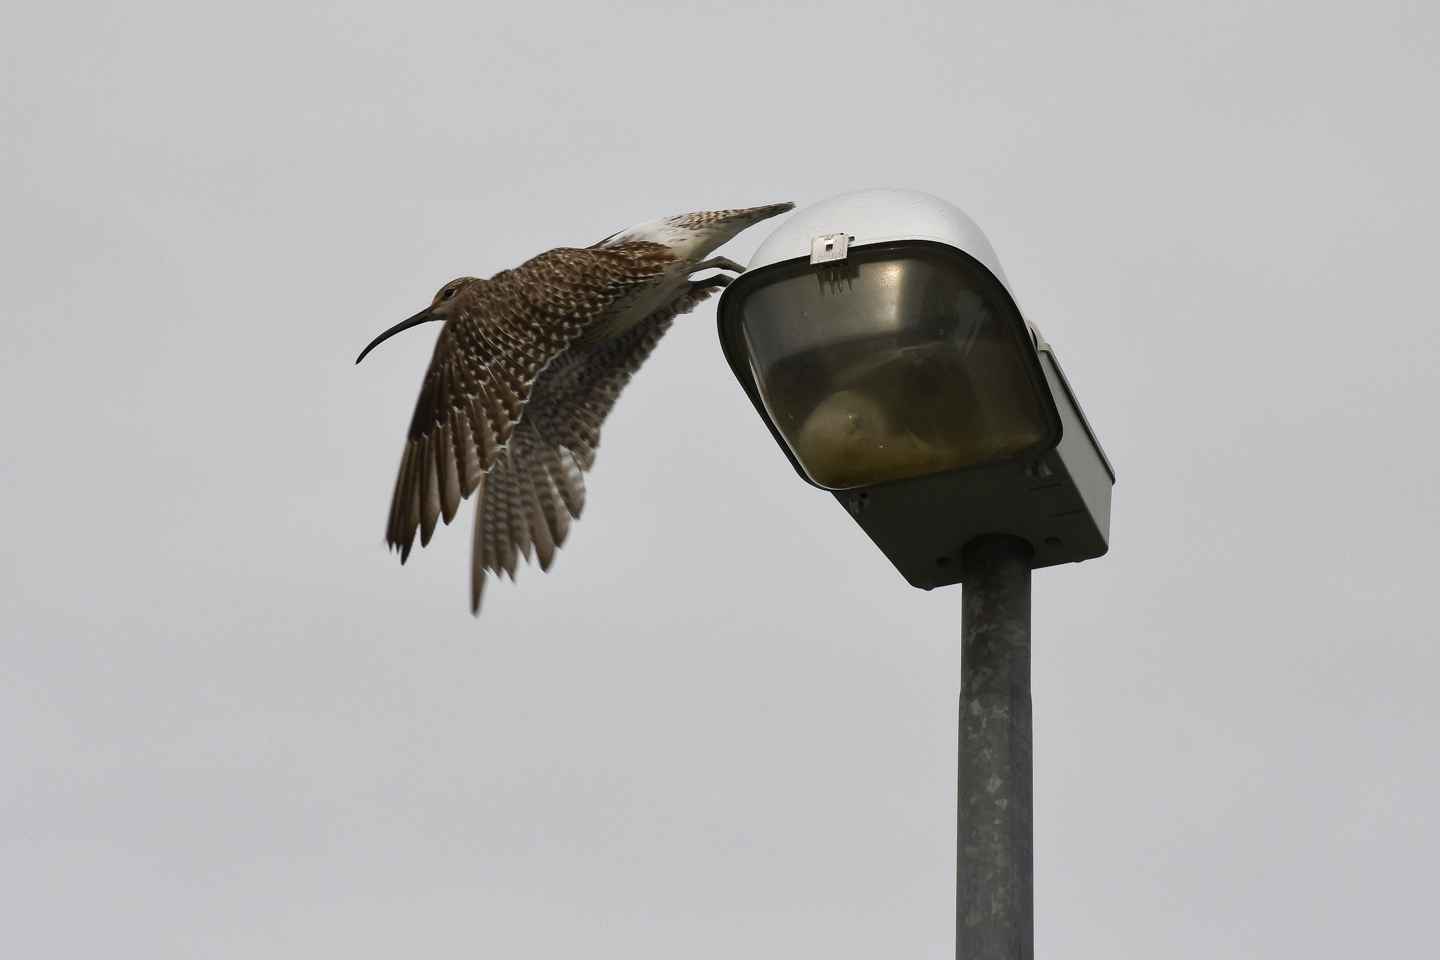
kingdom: Animalia
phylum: Chordata
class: Aves
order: Charadriiformes
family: Scolopacidae
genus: Numenius
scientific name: Numenius phaeopus
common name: Whimbrel
